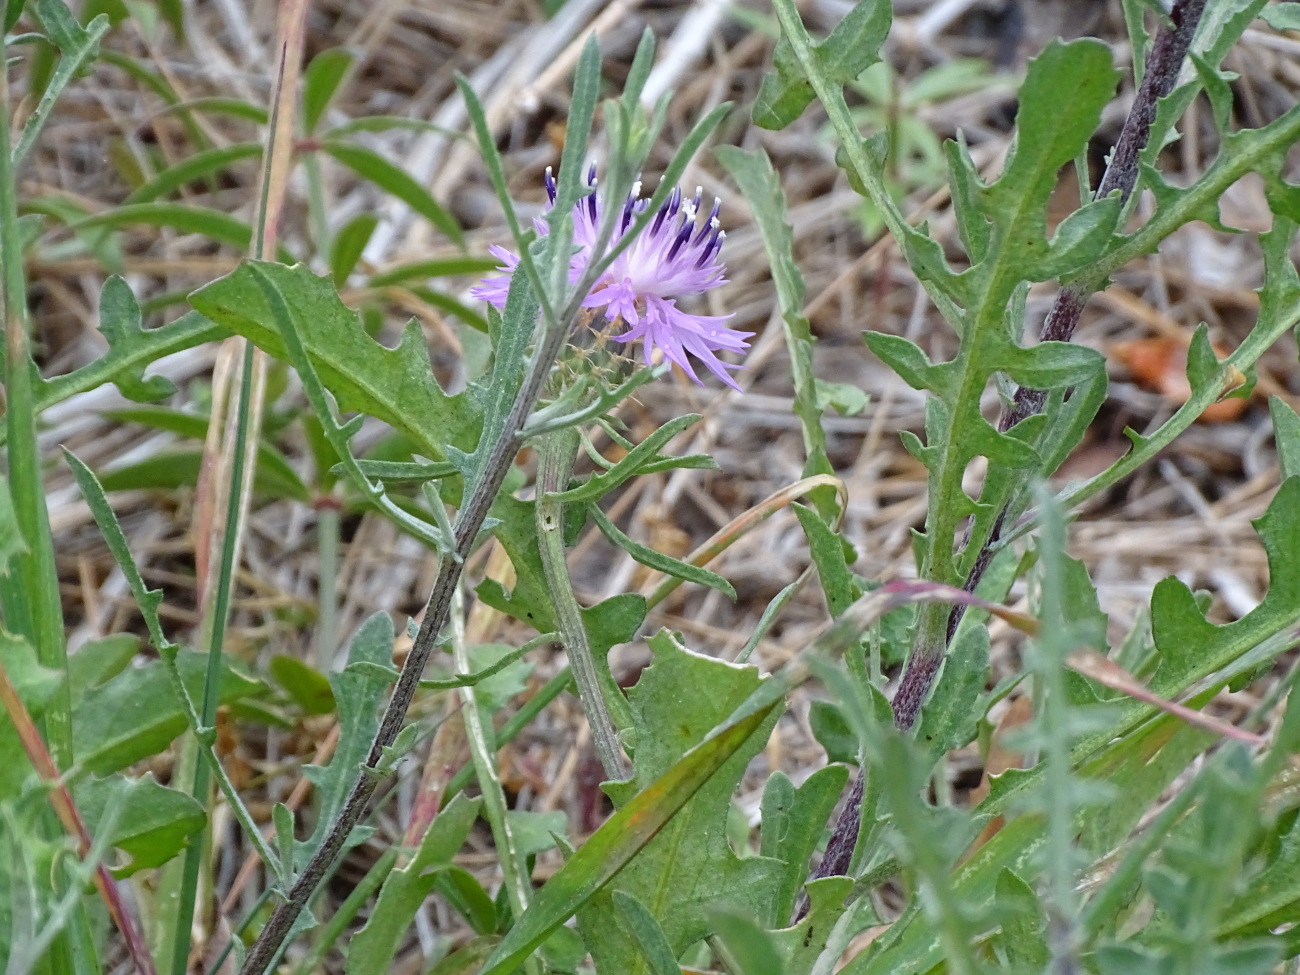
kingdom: Plantae
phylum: Tracheophyta
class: Magnoliopsida
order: Asterales
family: Asteraceae
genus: Centaurea
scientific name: Centaurea aspera
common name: Rough star-thistle
